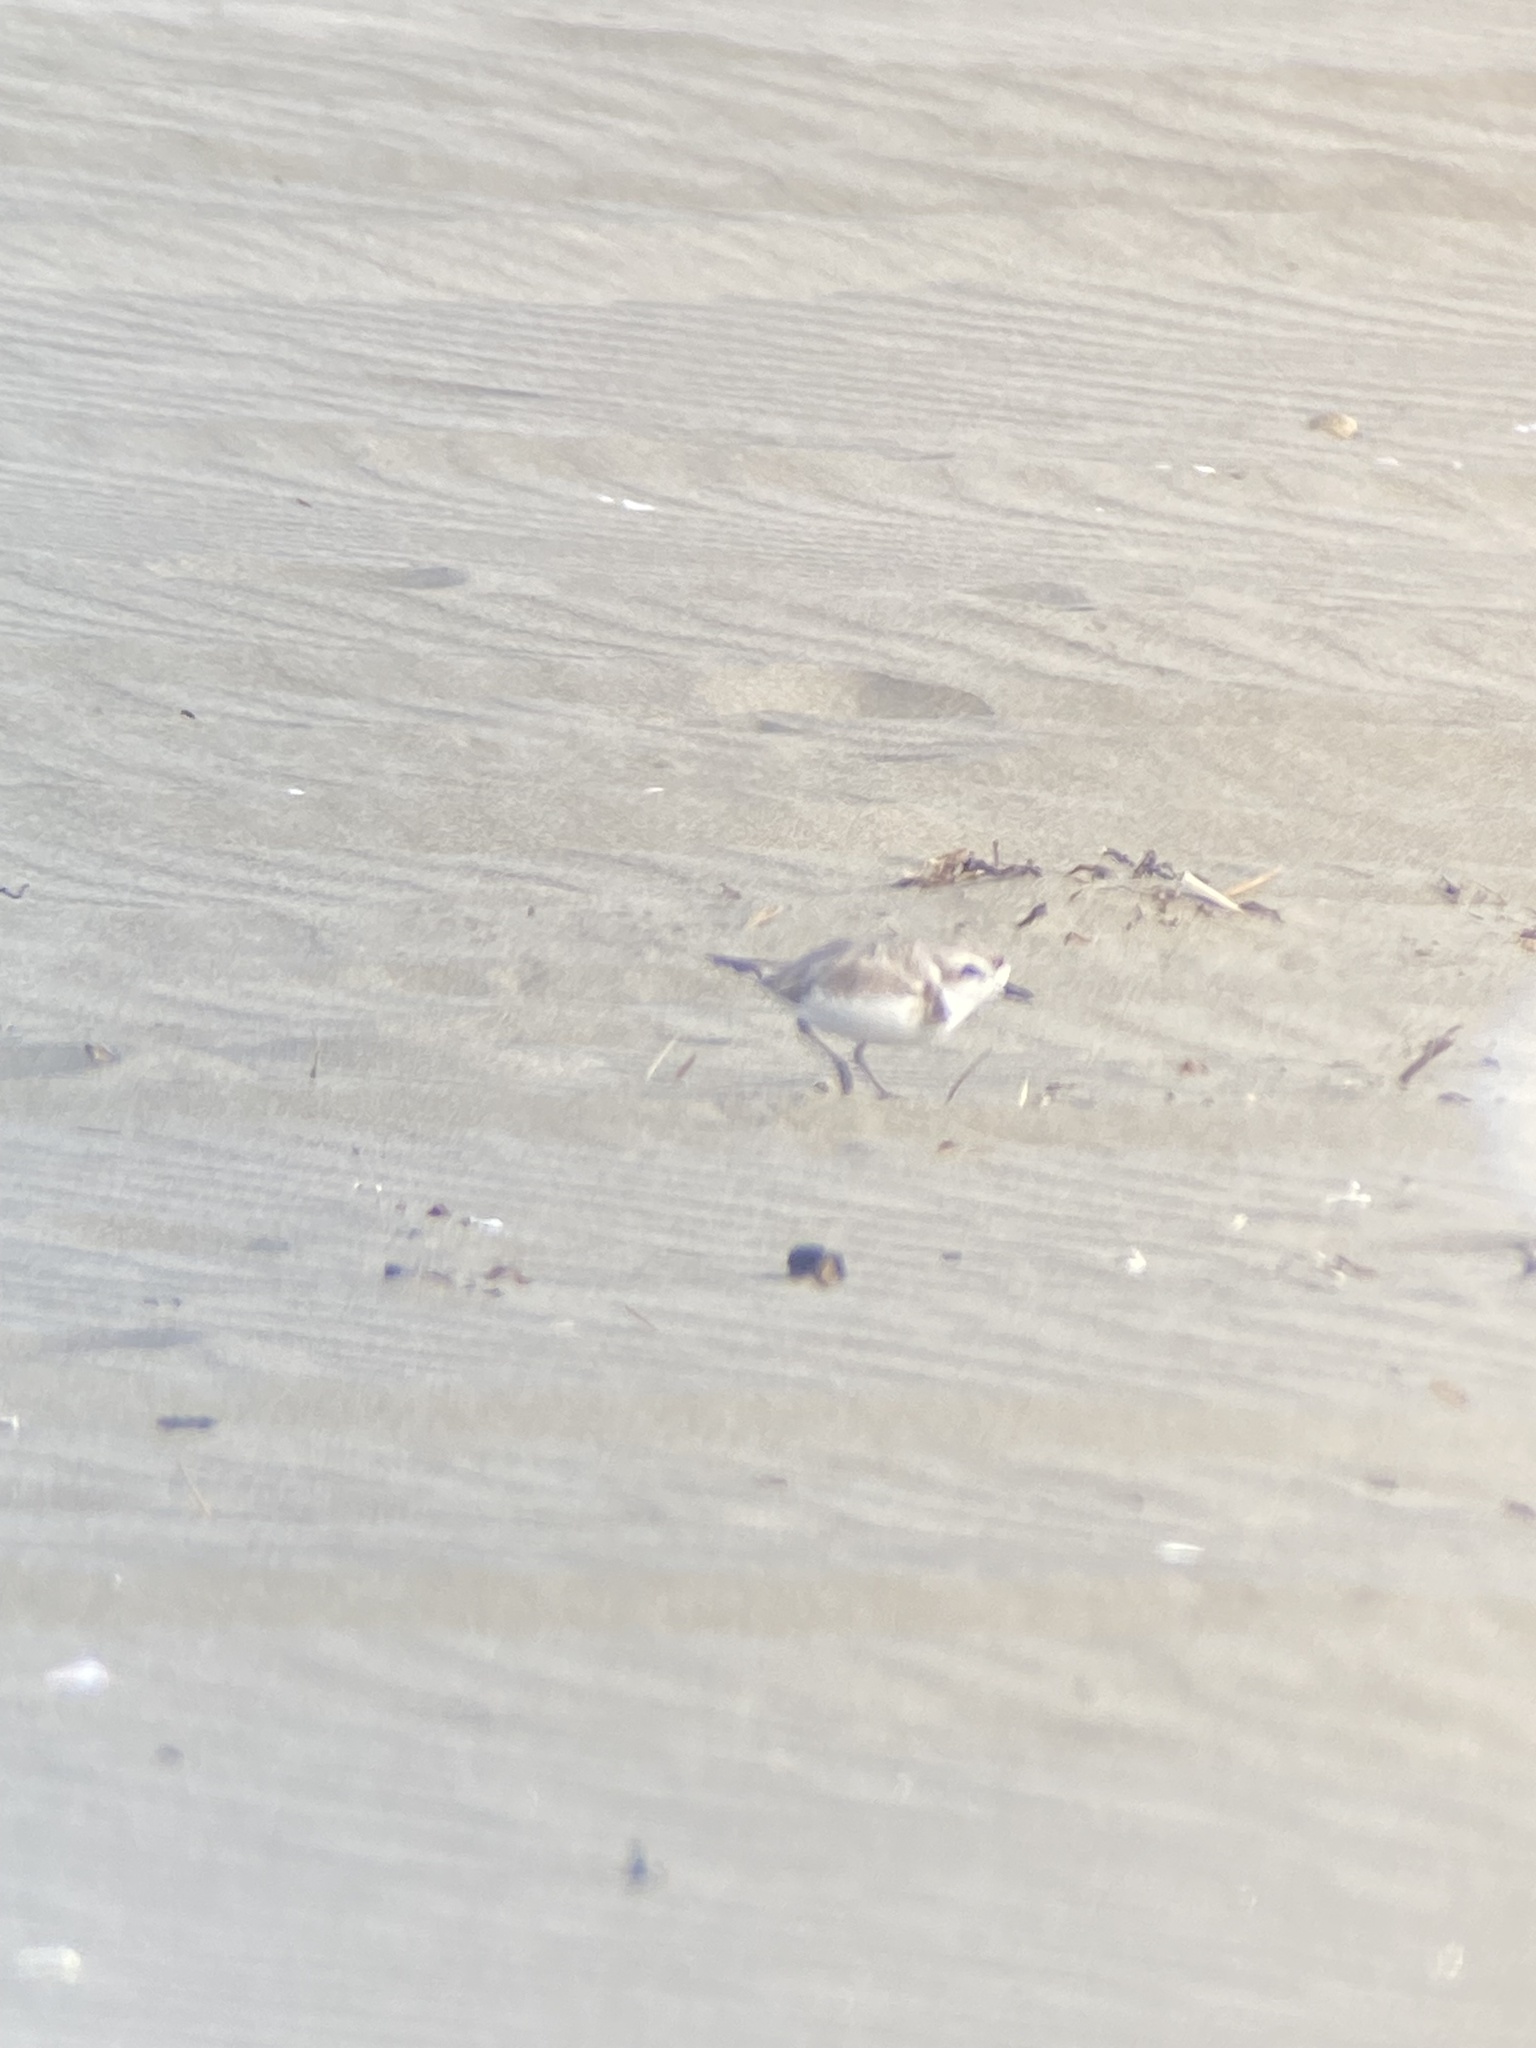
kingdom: Animalia
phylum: Chordata
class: Aves
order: Charadriiformes
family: Charadriidae
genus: Anarhynchus
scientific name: Anarhynchus
